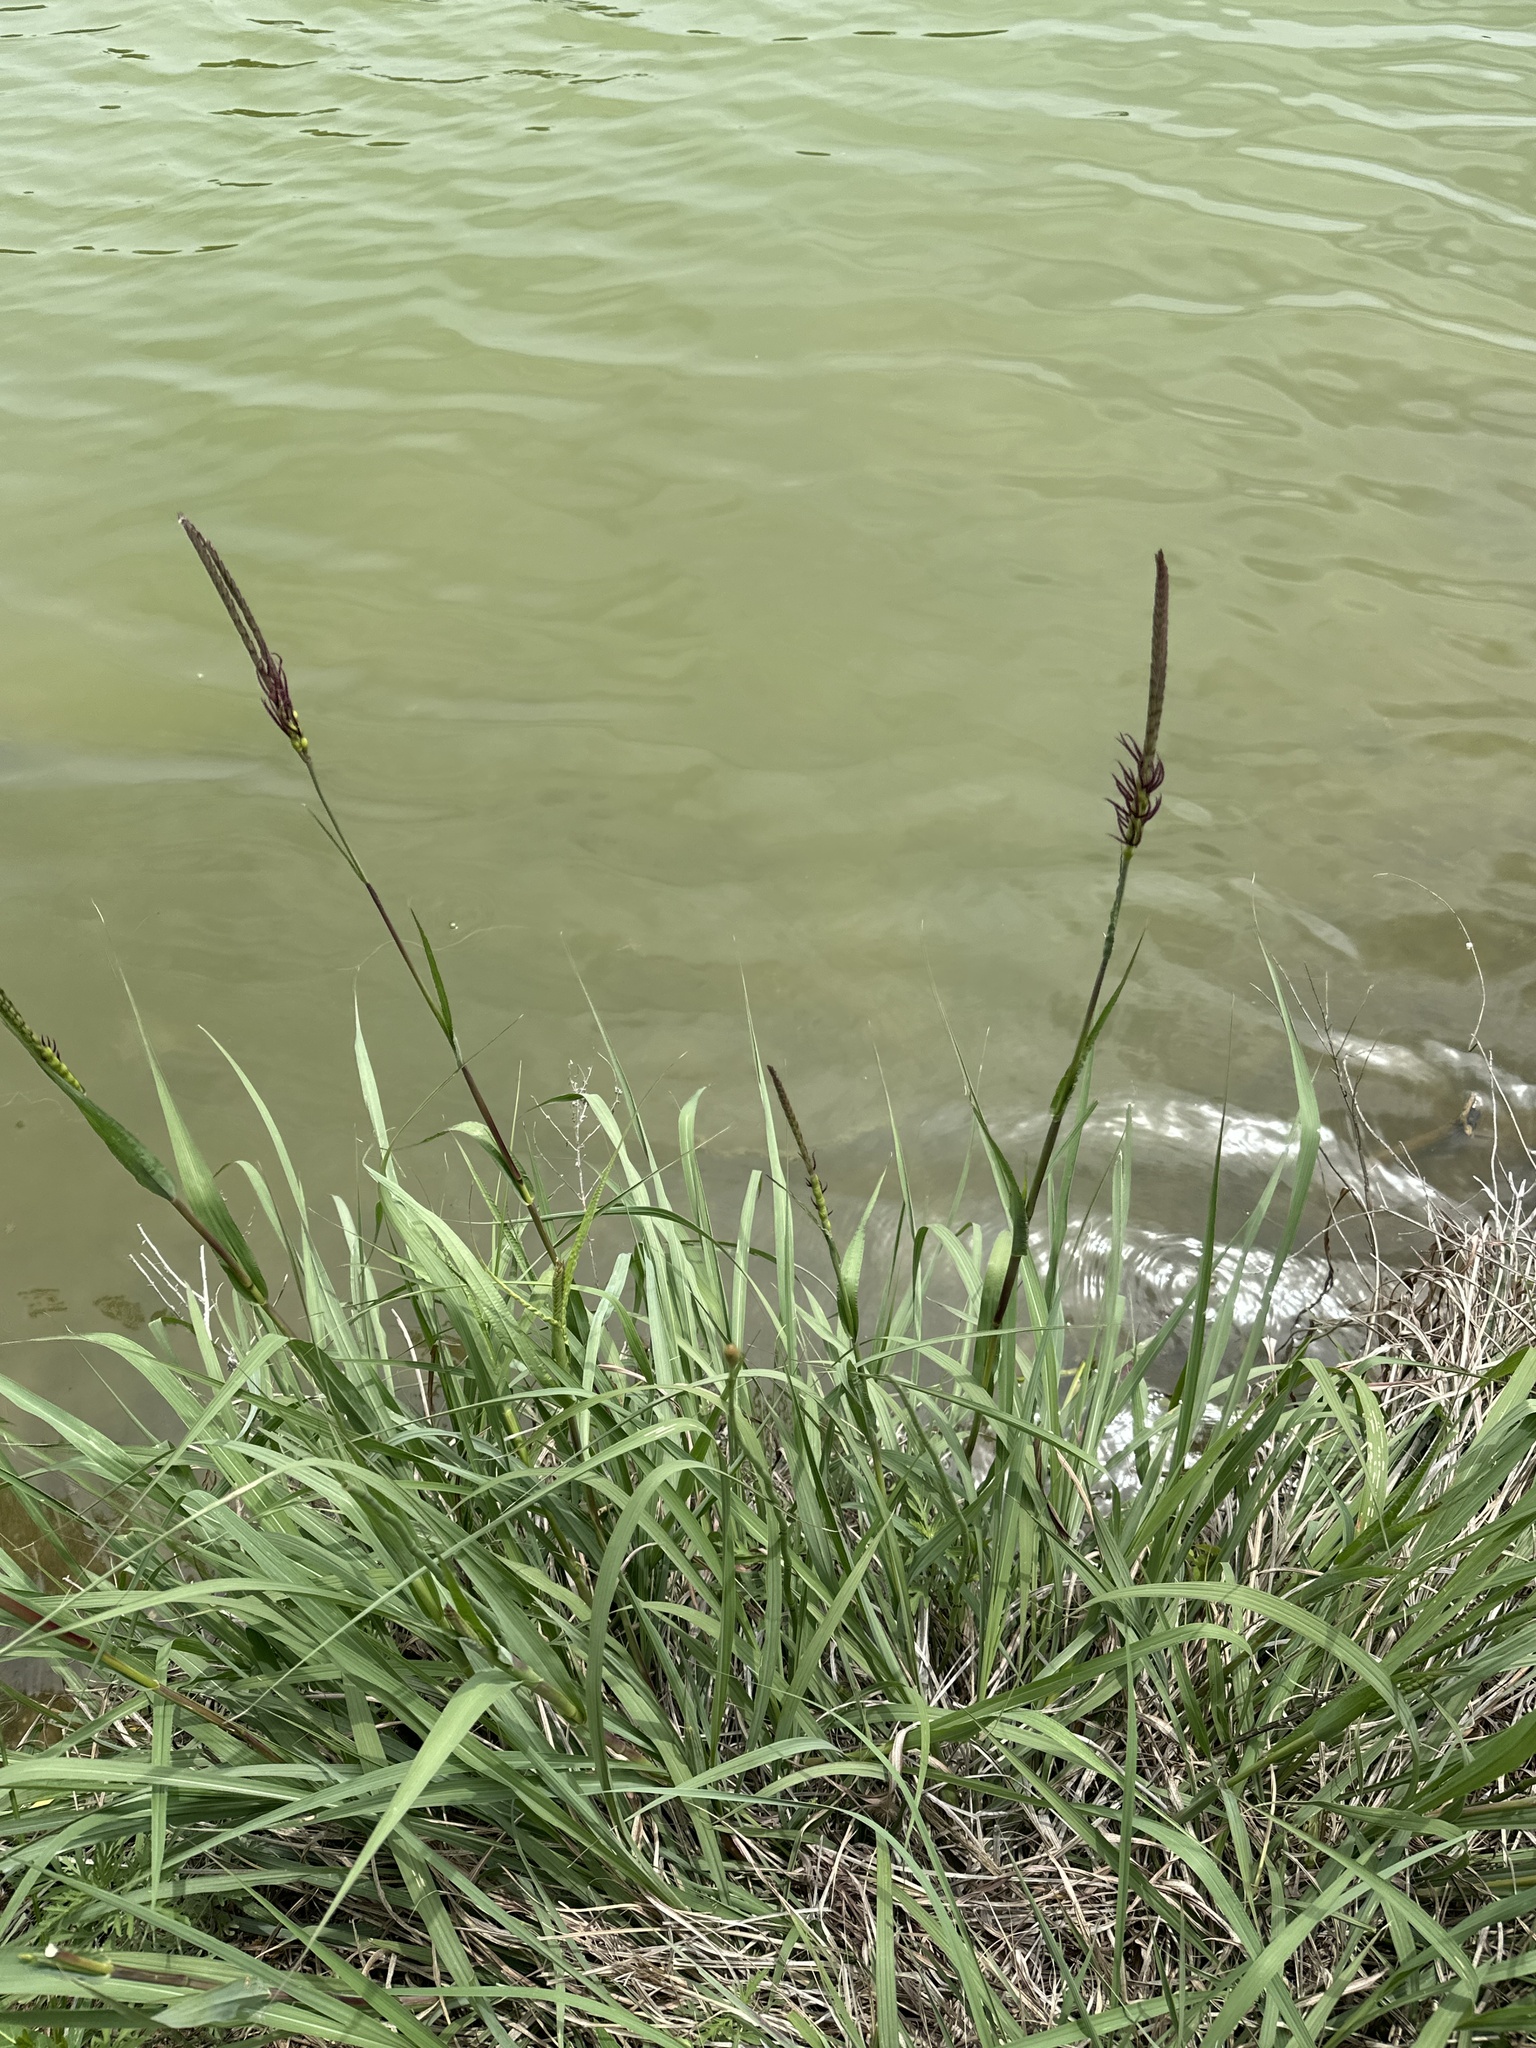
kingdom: Plantae
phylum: Tracheophyta
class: Liliopsida
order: Poales
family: Poaceae
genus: Tripsacum
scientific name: Tripsacum dactyloides
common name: Buffalo-grass
